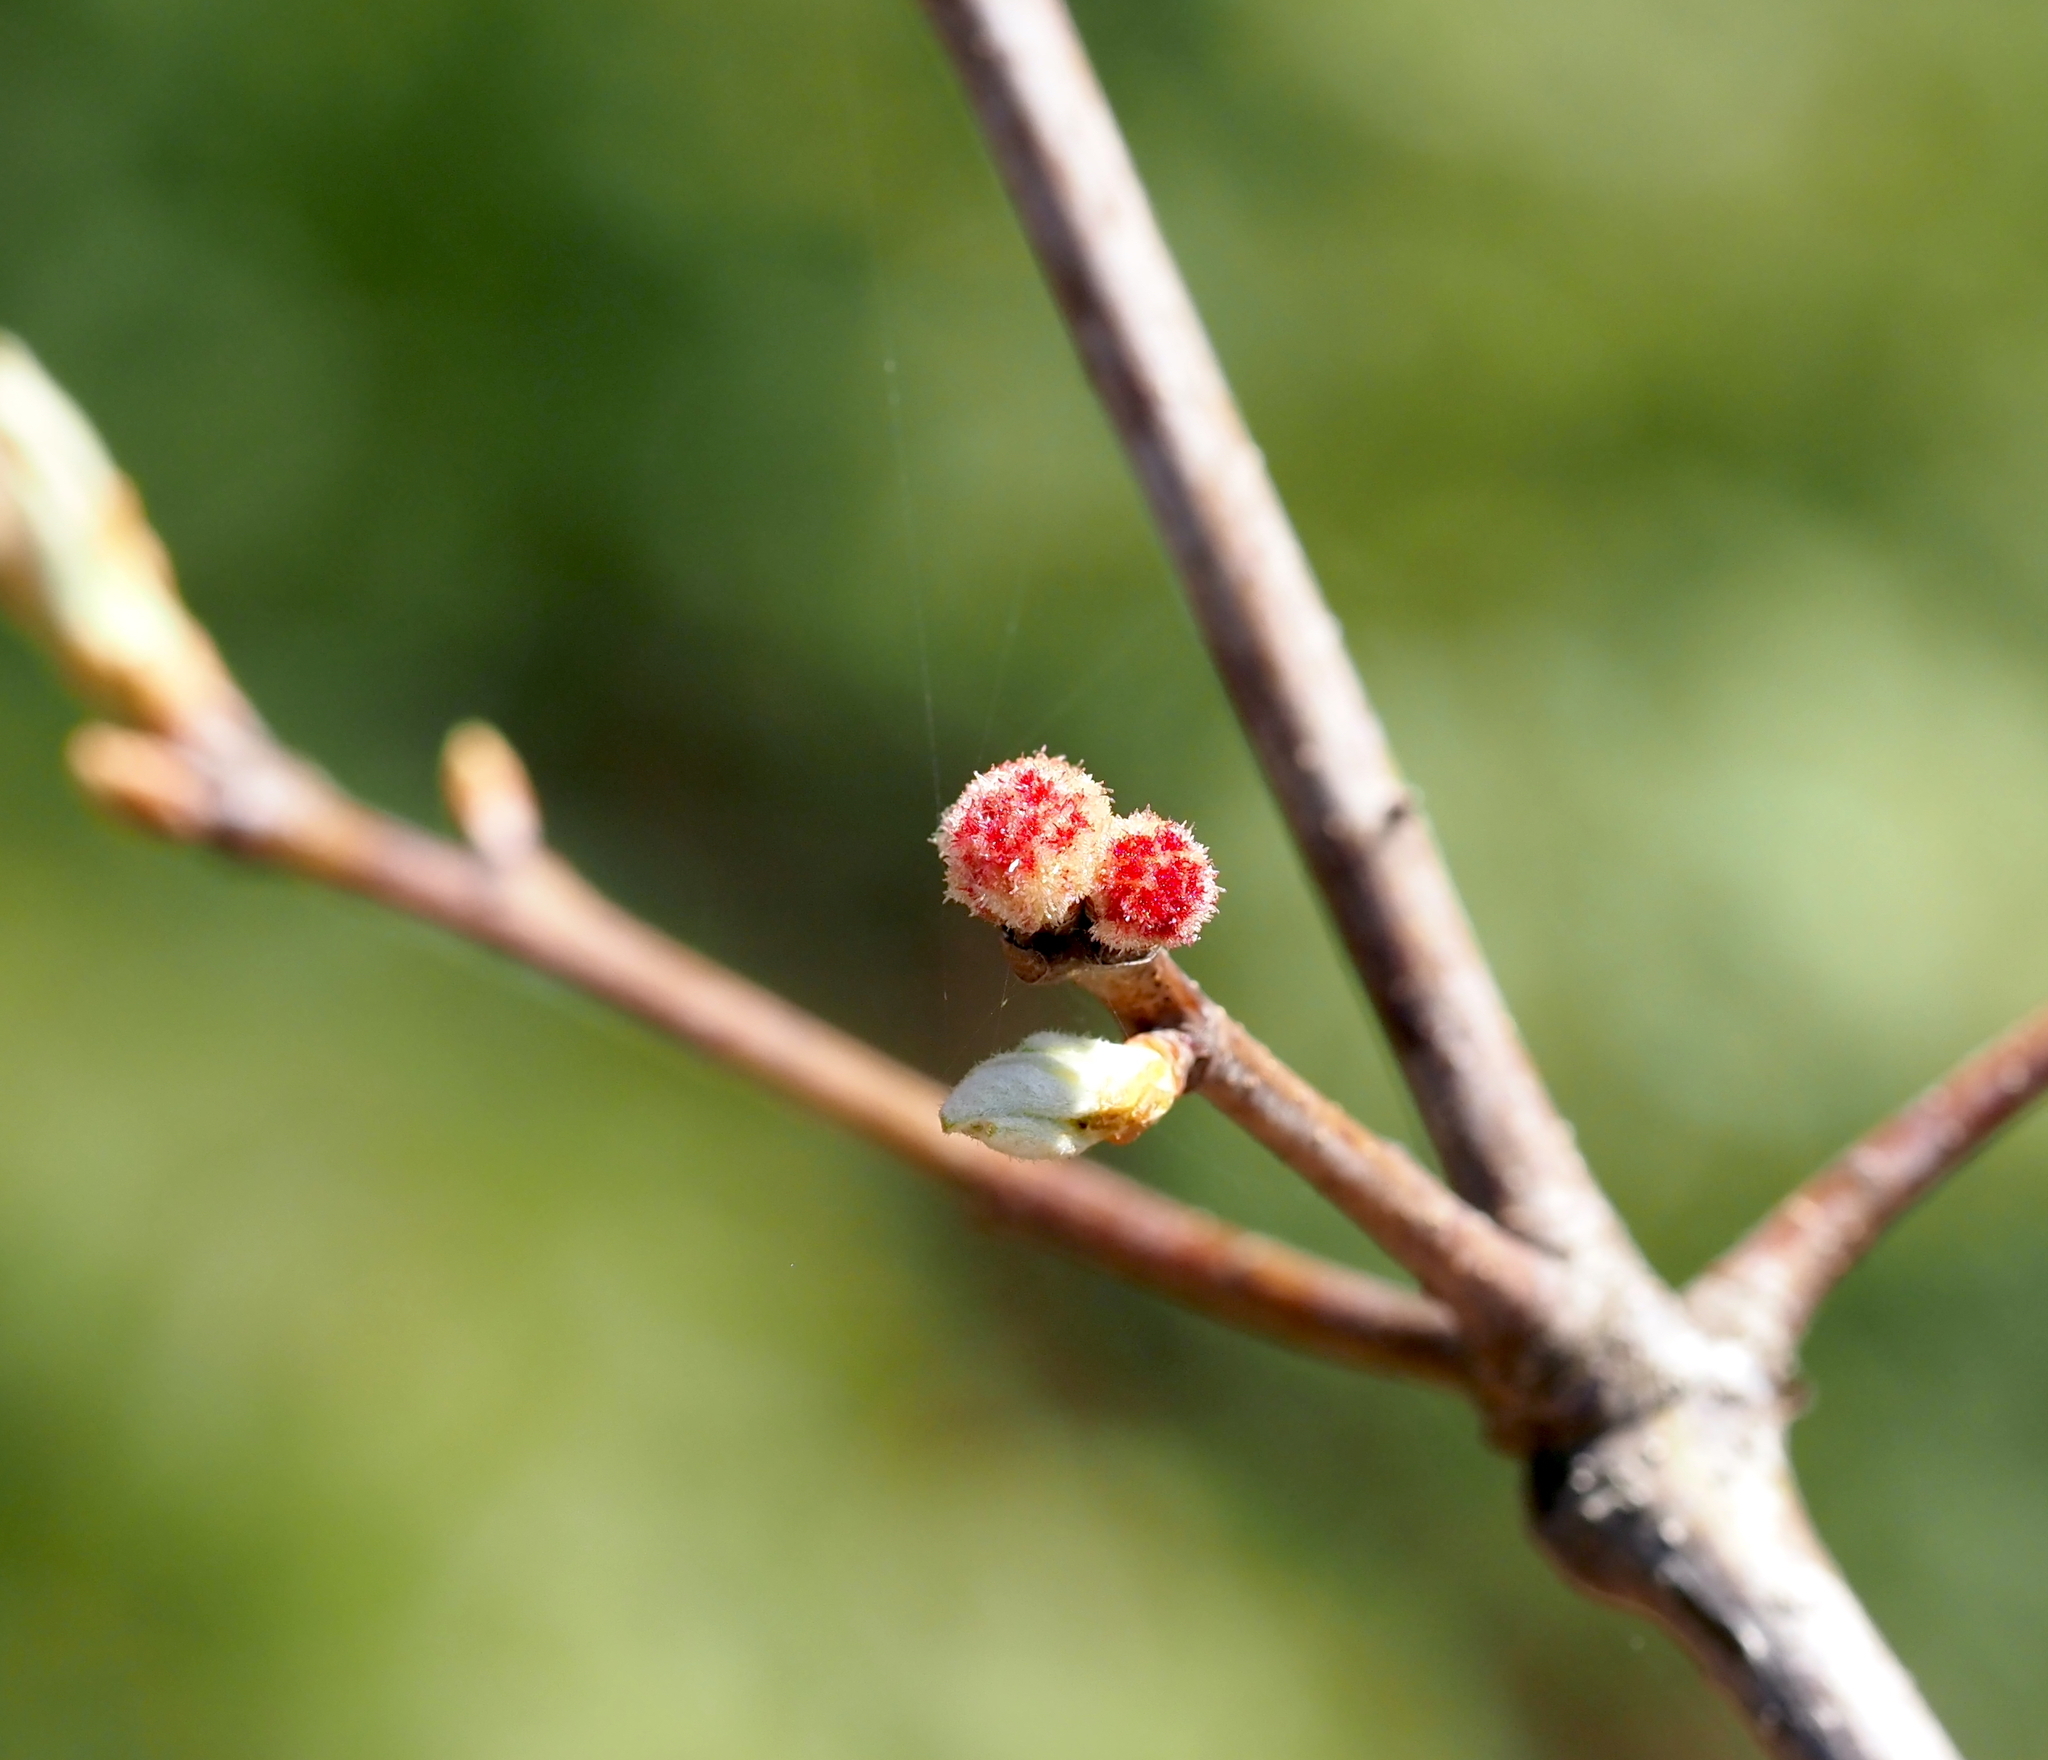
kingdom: Animalia
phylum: Arthropoda
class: Insecta
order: Hymenoptera
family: Cynipidae
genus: Callirhytis
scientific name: Callirhytis
